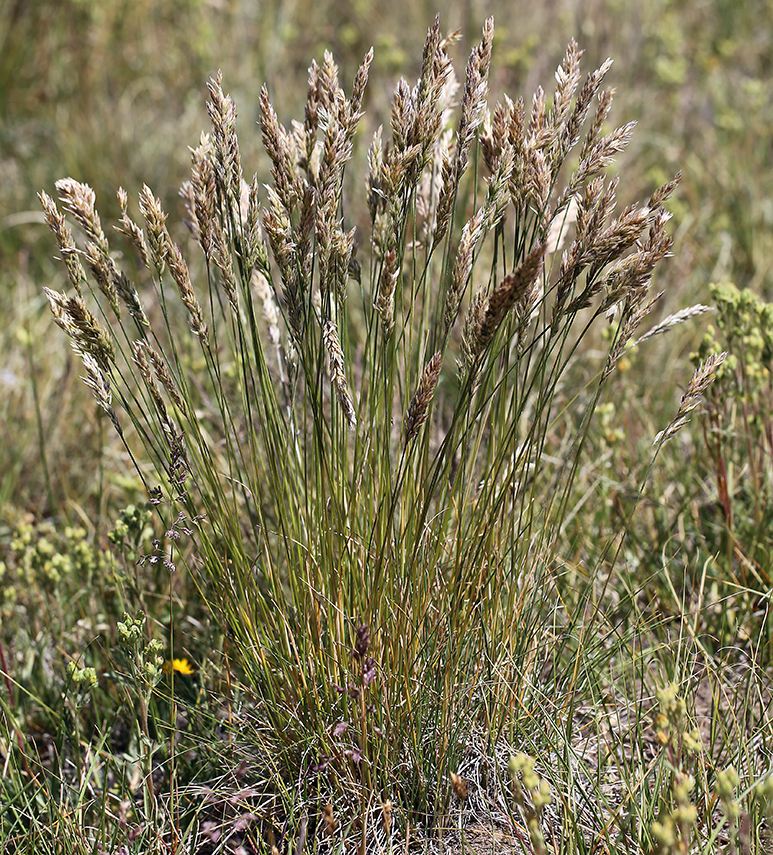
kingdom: Plantae
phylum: Tracheophyta
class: Liliopsida
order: Poales
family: Poaceae
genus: Poa
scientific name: Poa cusickii
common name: Cusick's bluegrass
